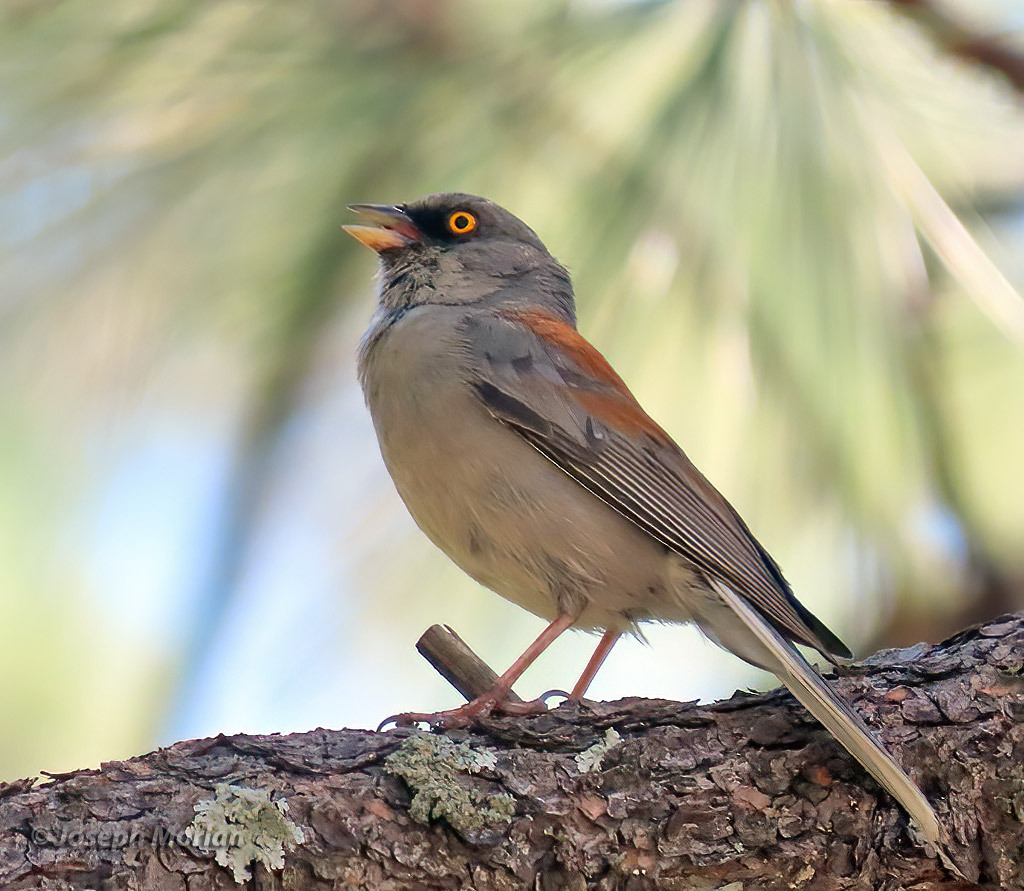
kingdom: Animalia
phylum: Chordata
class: Aves
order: Passeriformes
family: Passerellidae
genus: Junco
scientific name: Junco phaeonotus
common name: Yellow-eyed junco
